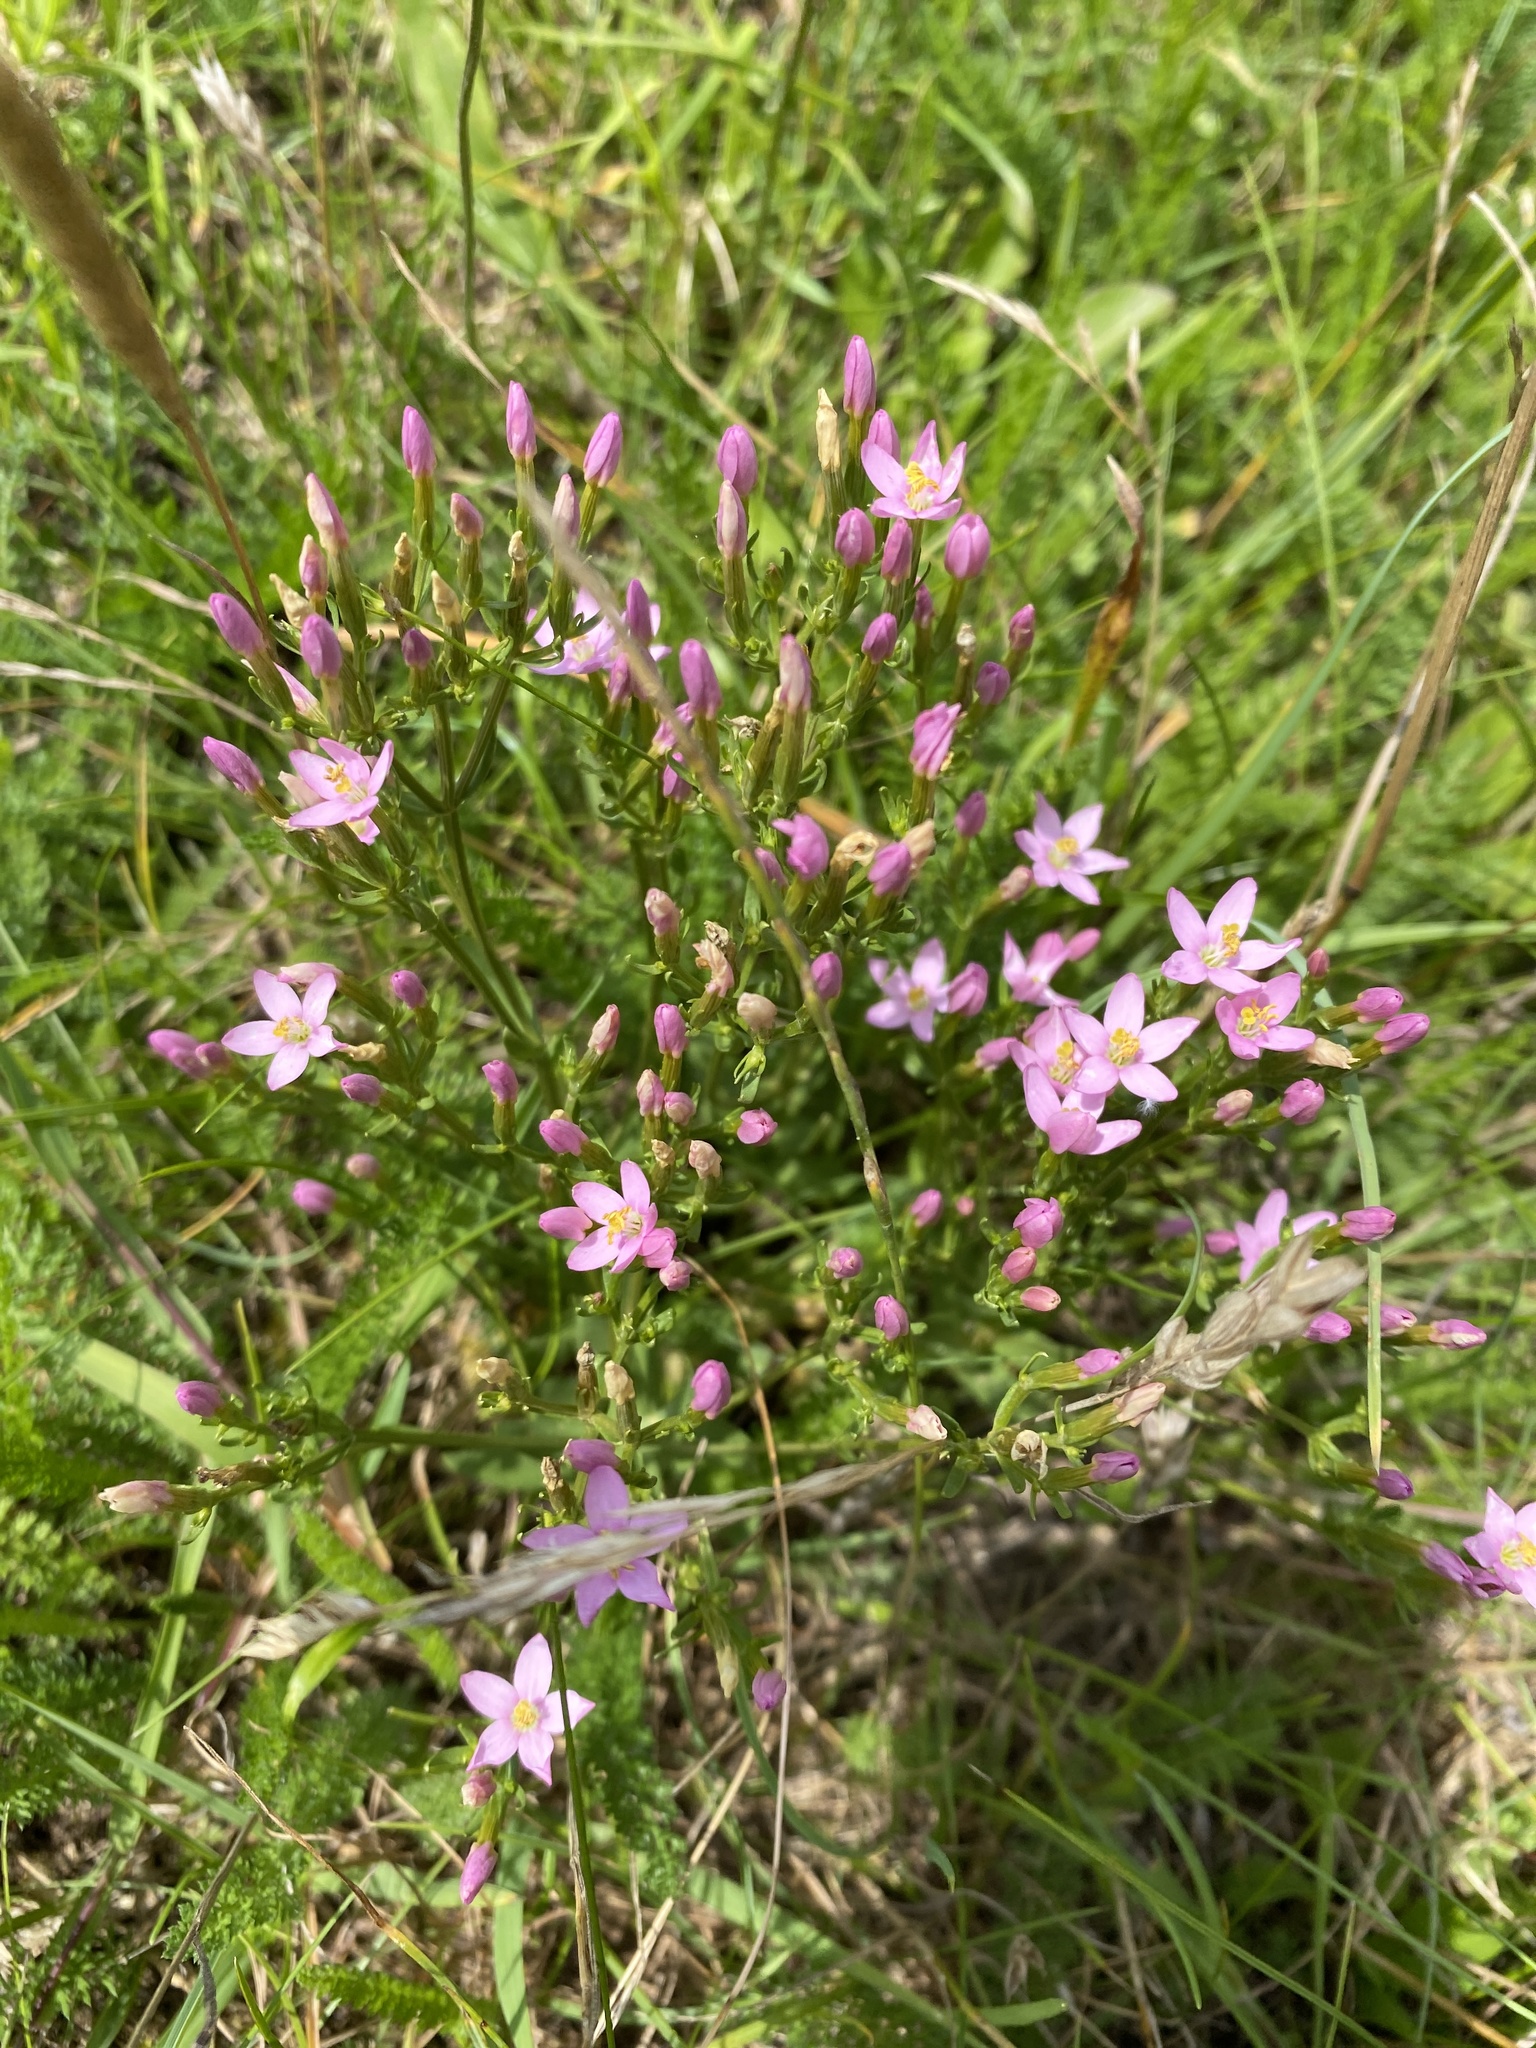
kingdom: Plantae
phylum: Tracheophyta
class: Magnoliopsida
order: Gentianales
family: Gentianaceae
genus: Centaurium
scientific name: Centaurium erythraea
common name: Common centaury
